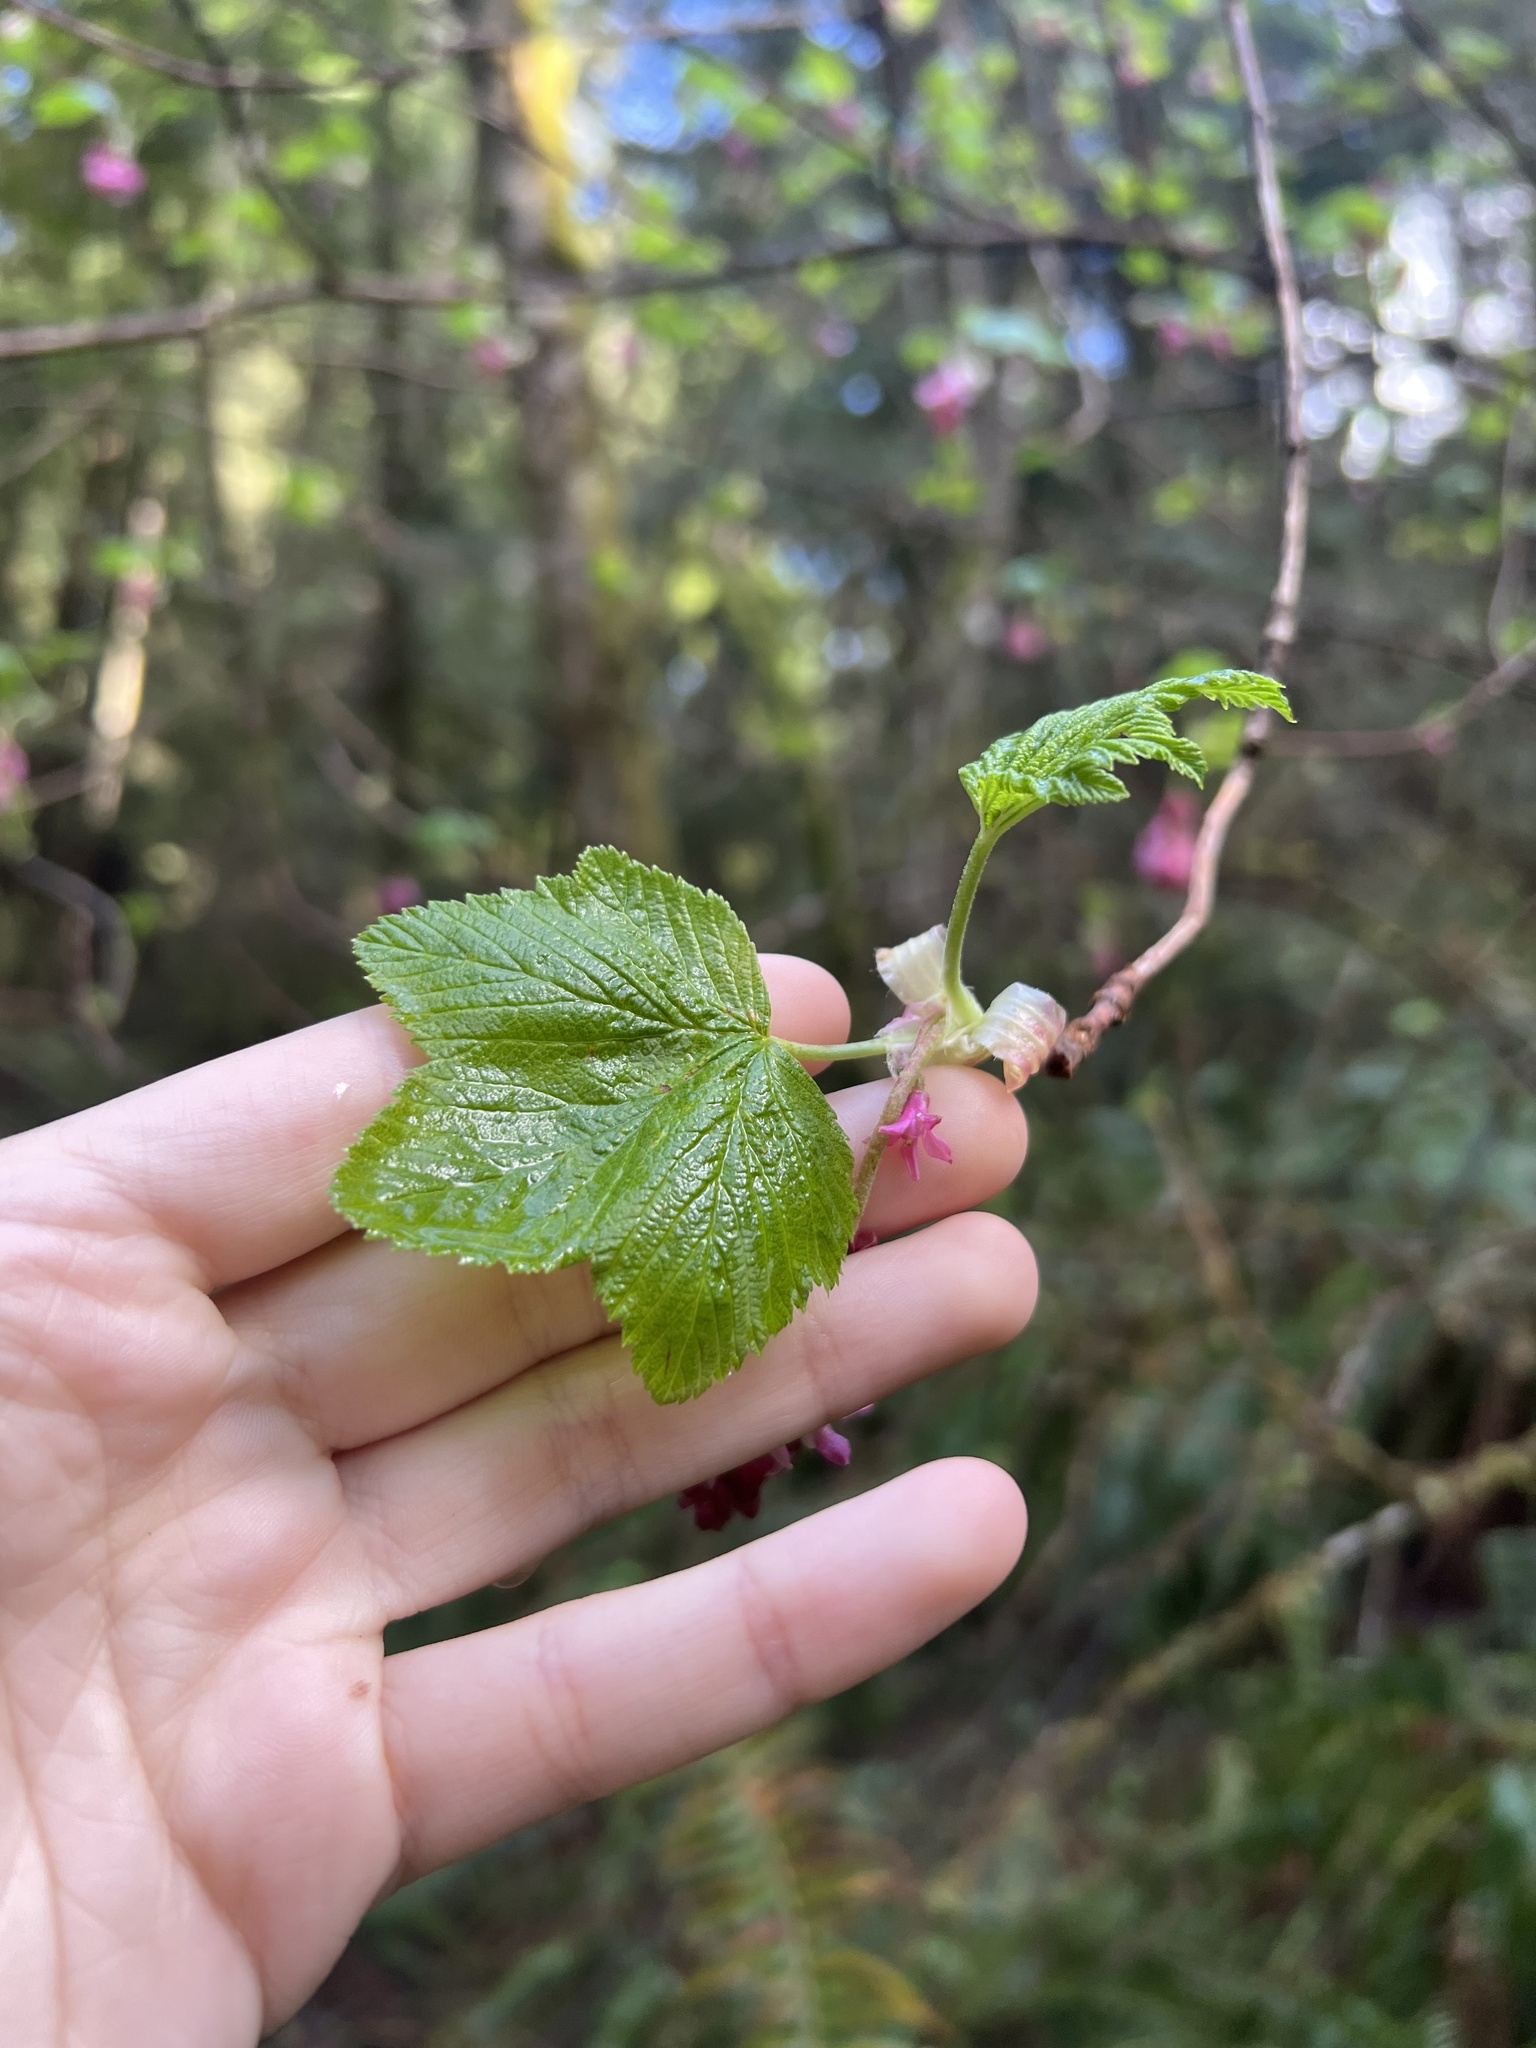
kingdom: Plantae
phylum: Tracheophyta
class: Magnoliopsida
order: Saxifragales
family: Grossulariaceae
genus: Ribes
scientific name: Ribes sanguineum
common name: Flowering currant
